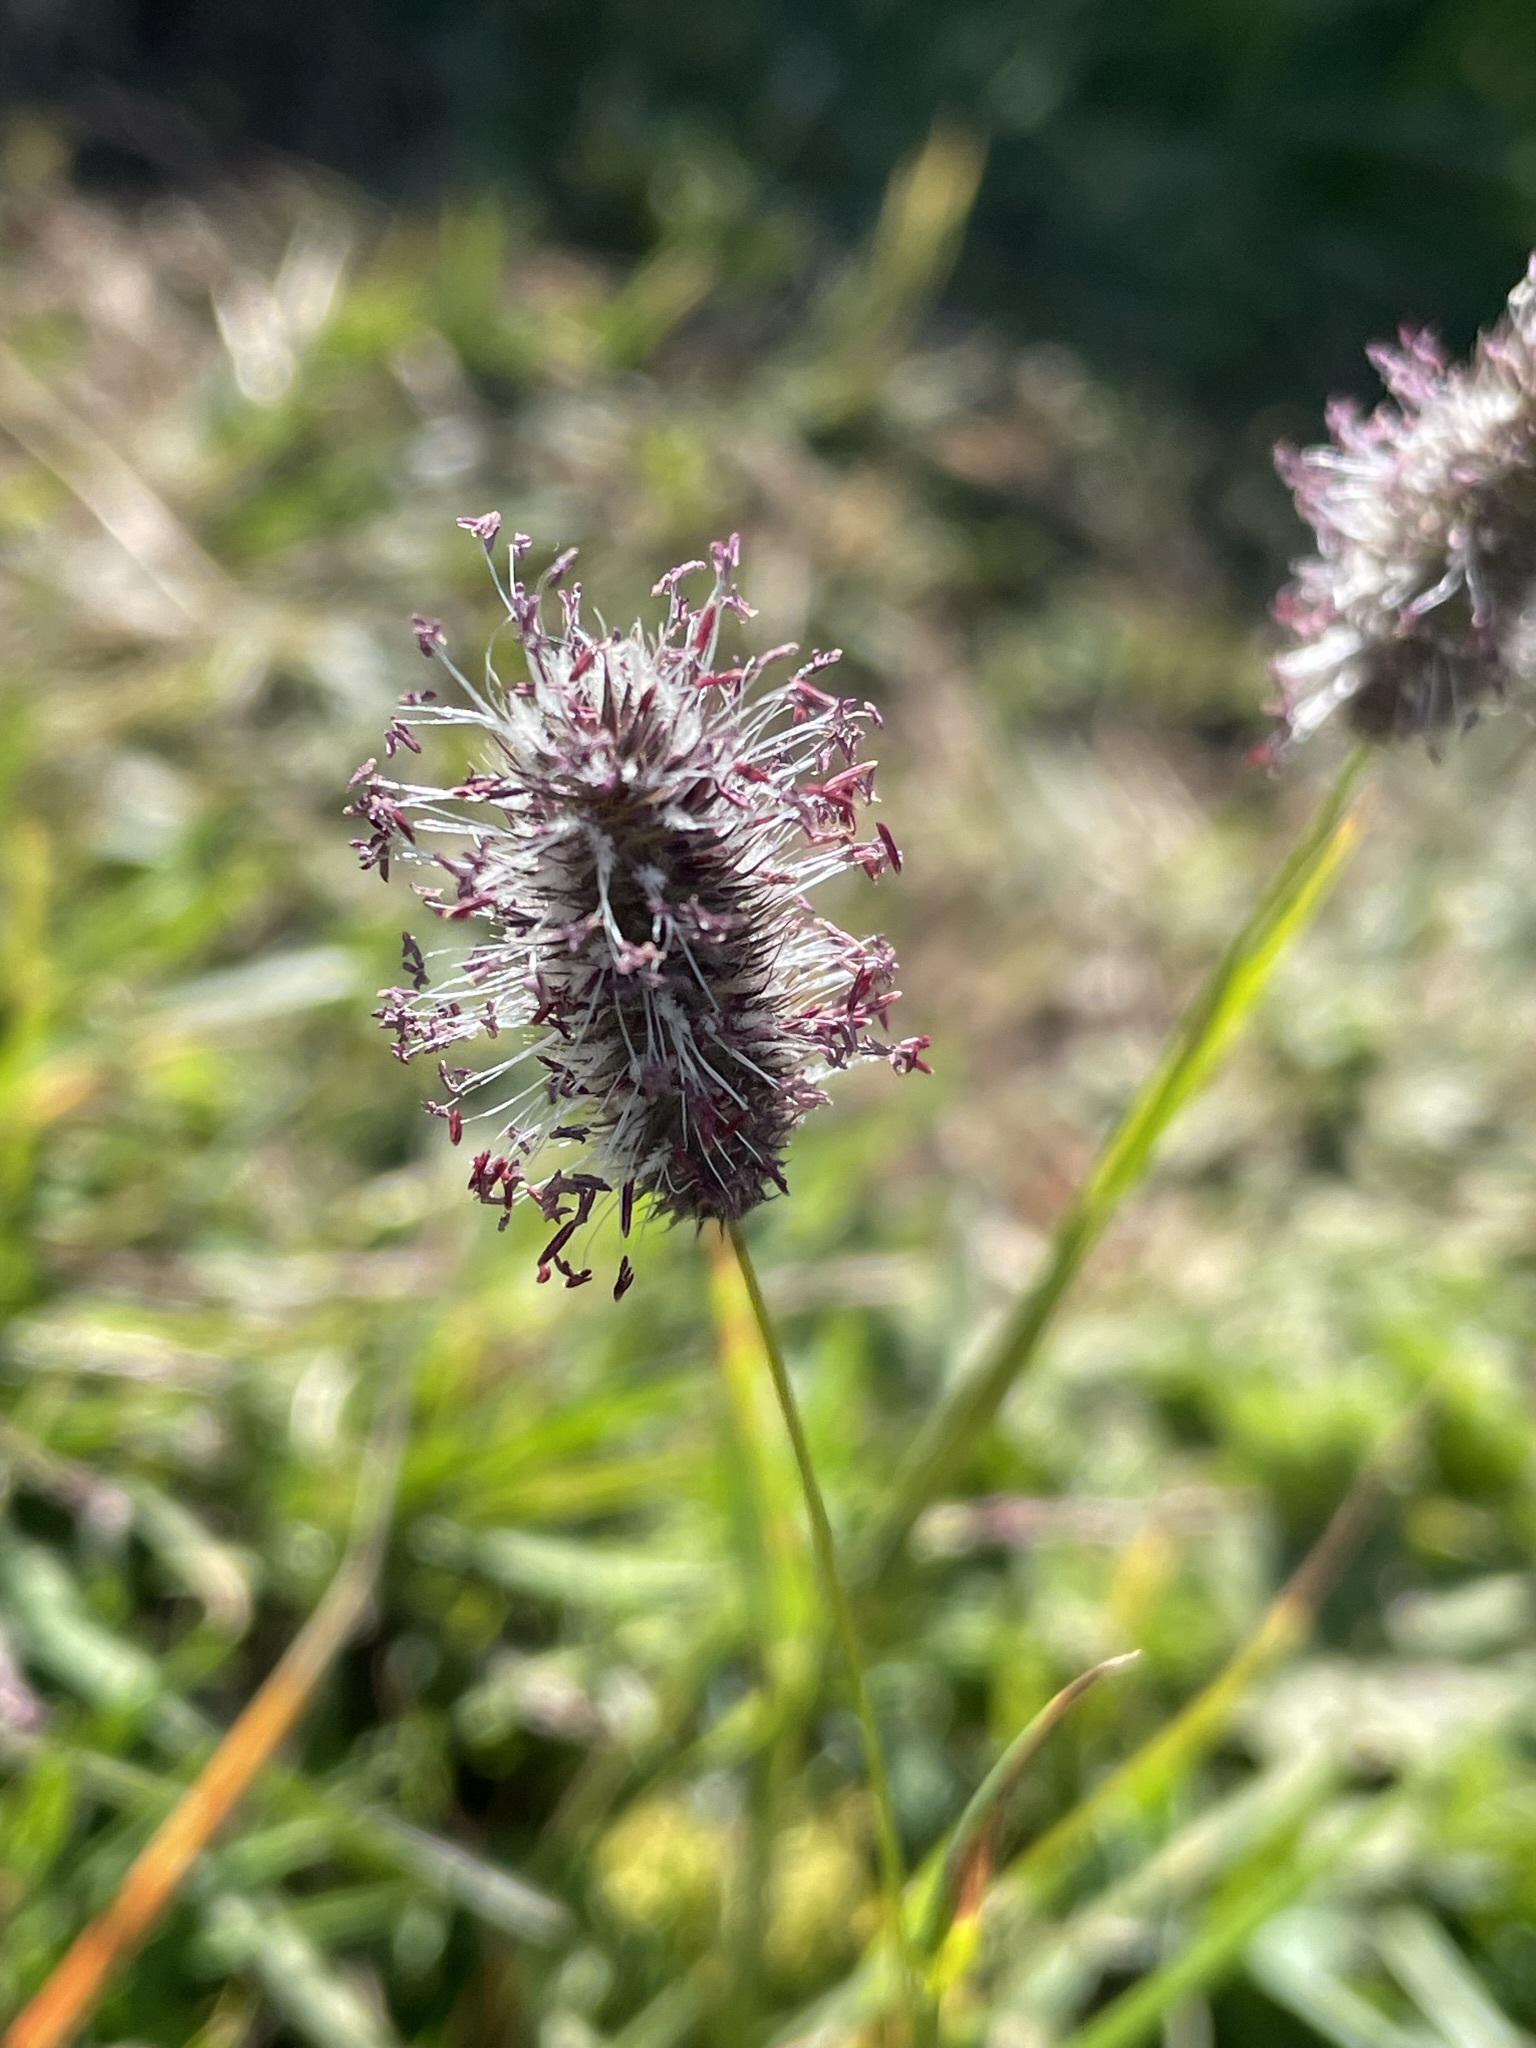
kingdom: Plantae
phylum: Tracheophyta
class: Liliopsida
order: Poales
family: Poaceae
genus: Phleum
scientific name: Phleum alpinum
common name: Alpine cat's-tail
